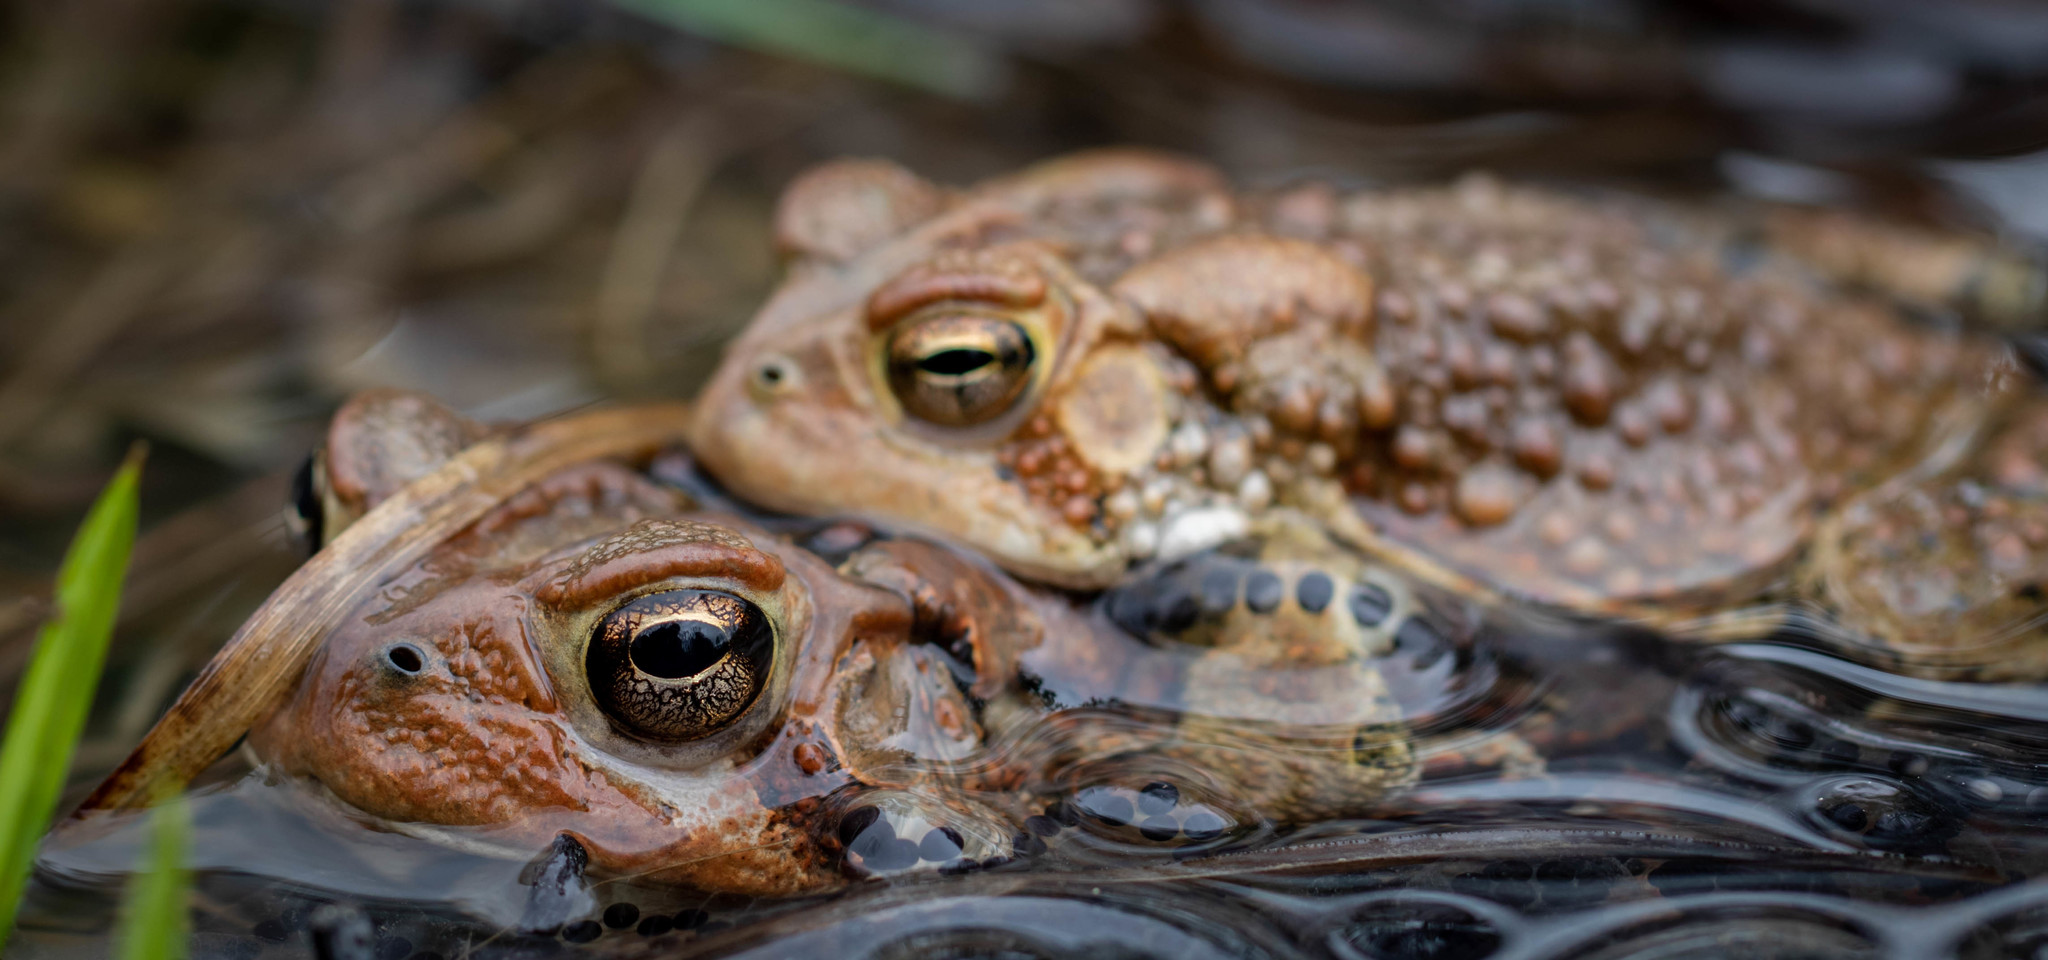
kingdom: Animalia
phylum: Chordata
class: Amphibia
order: Anura
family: Bufonidae
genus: Anaxyrus
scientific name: Anaxyrus americanus
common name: American toad
